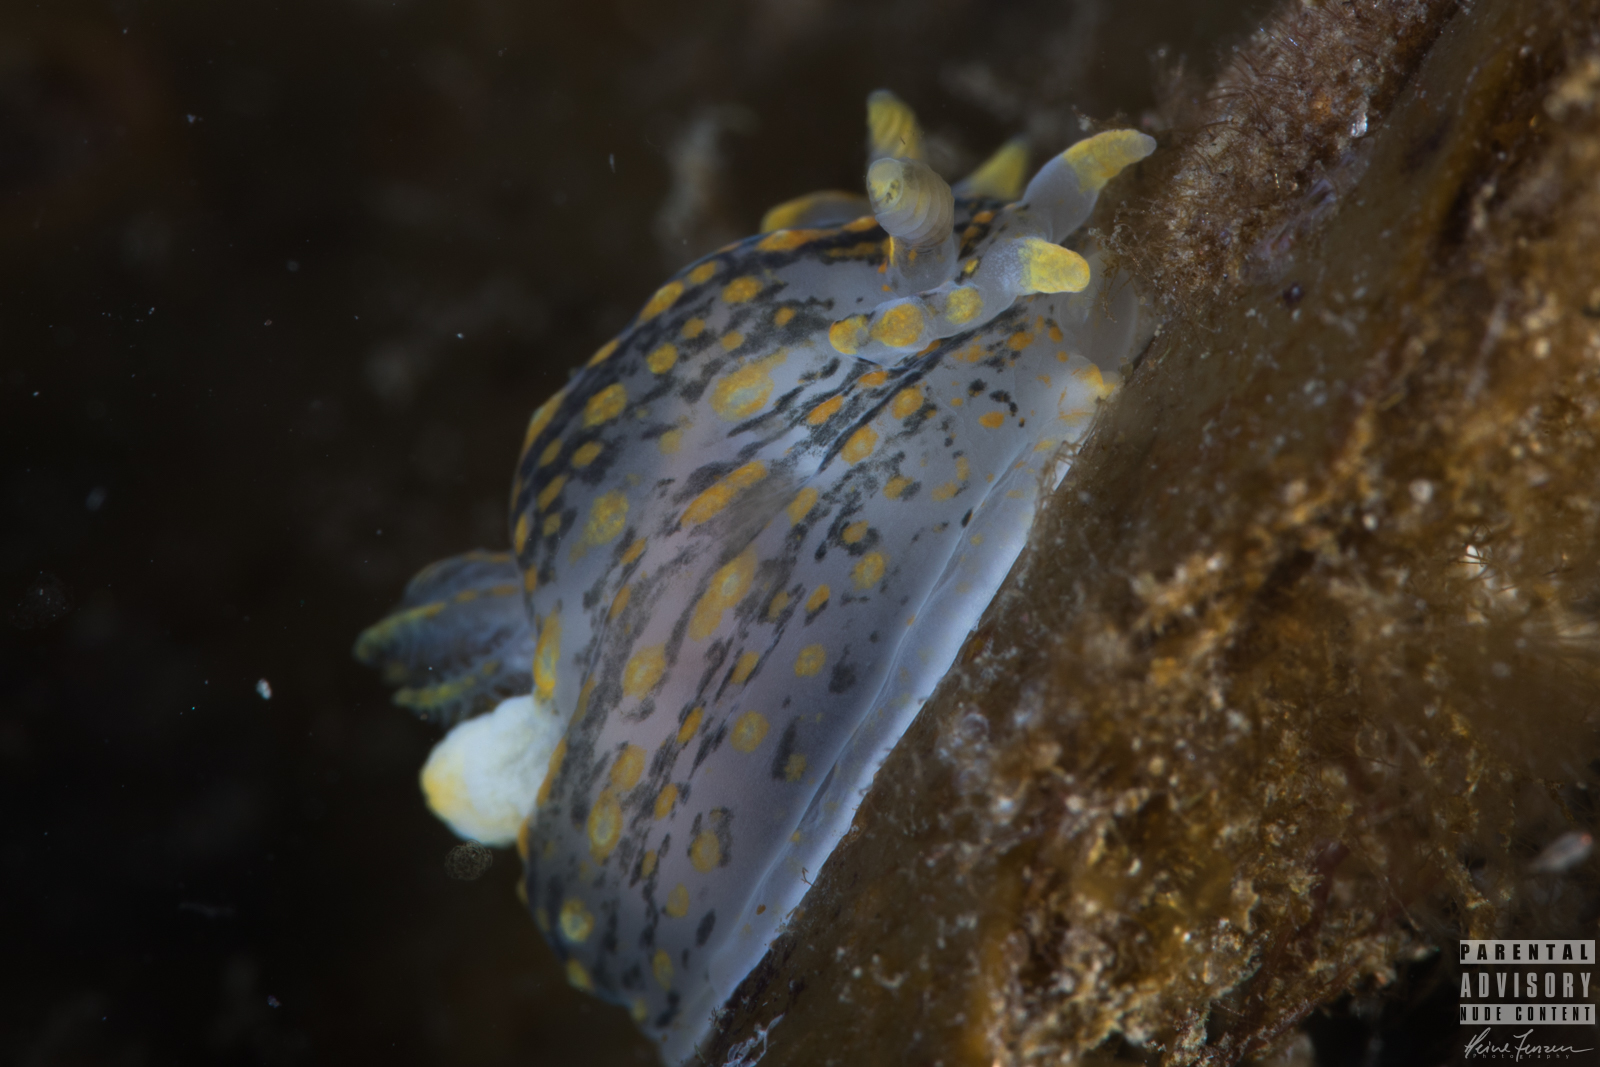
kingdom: Animalia
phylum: Mollusca
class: Gastropoda
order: Nudibranchia
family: Polyceridae
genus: Polycera
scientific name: Polycera quadrilineata
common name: Four-striped polycera
